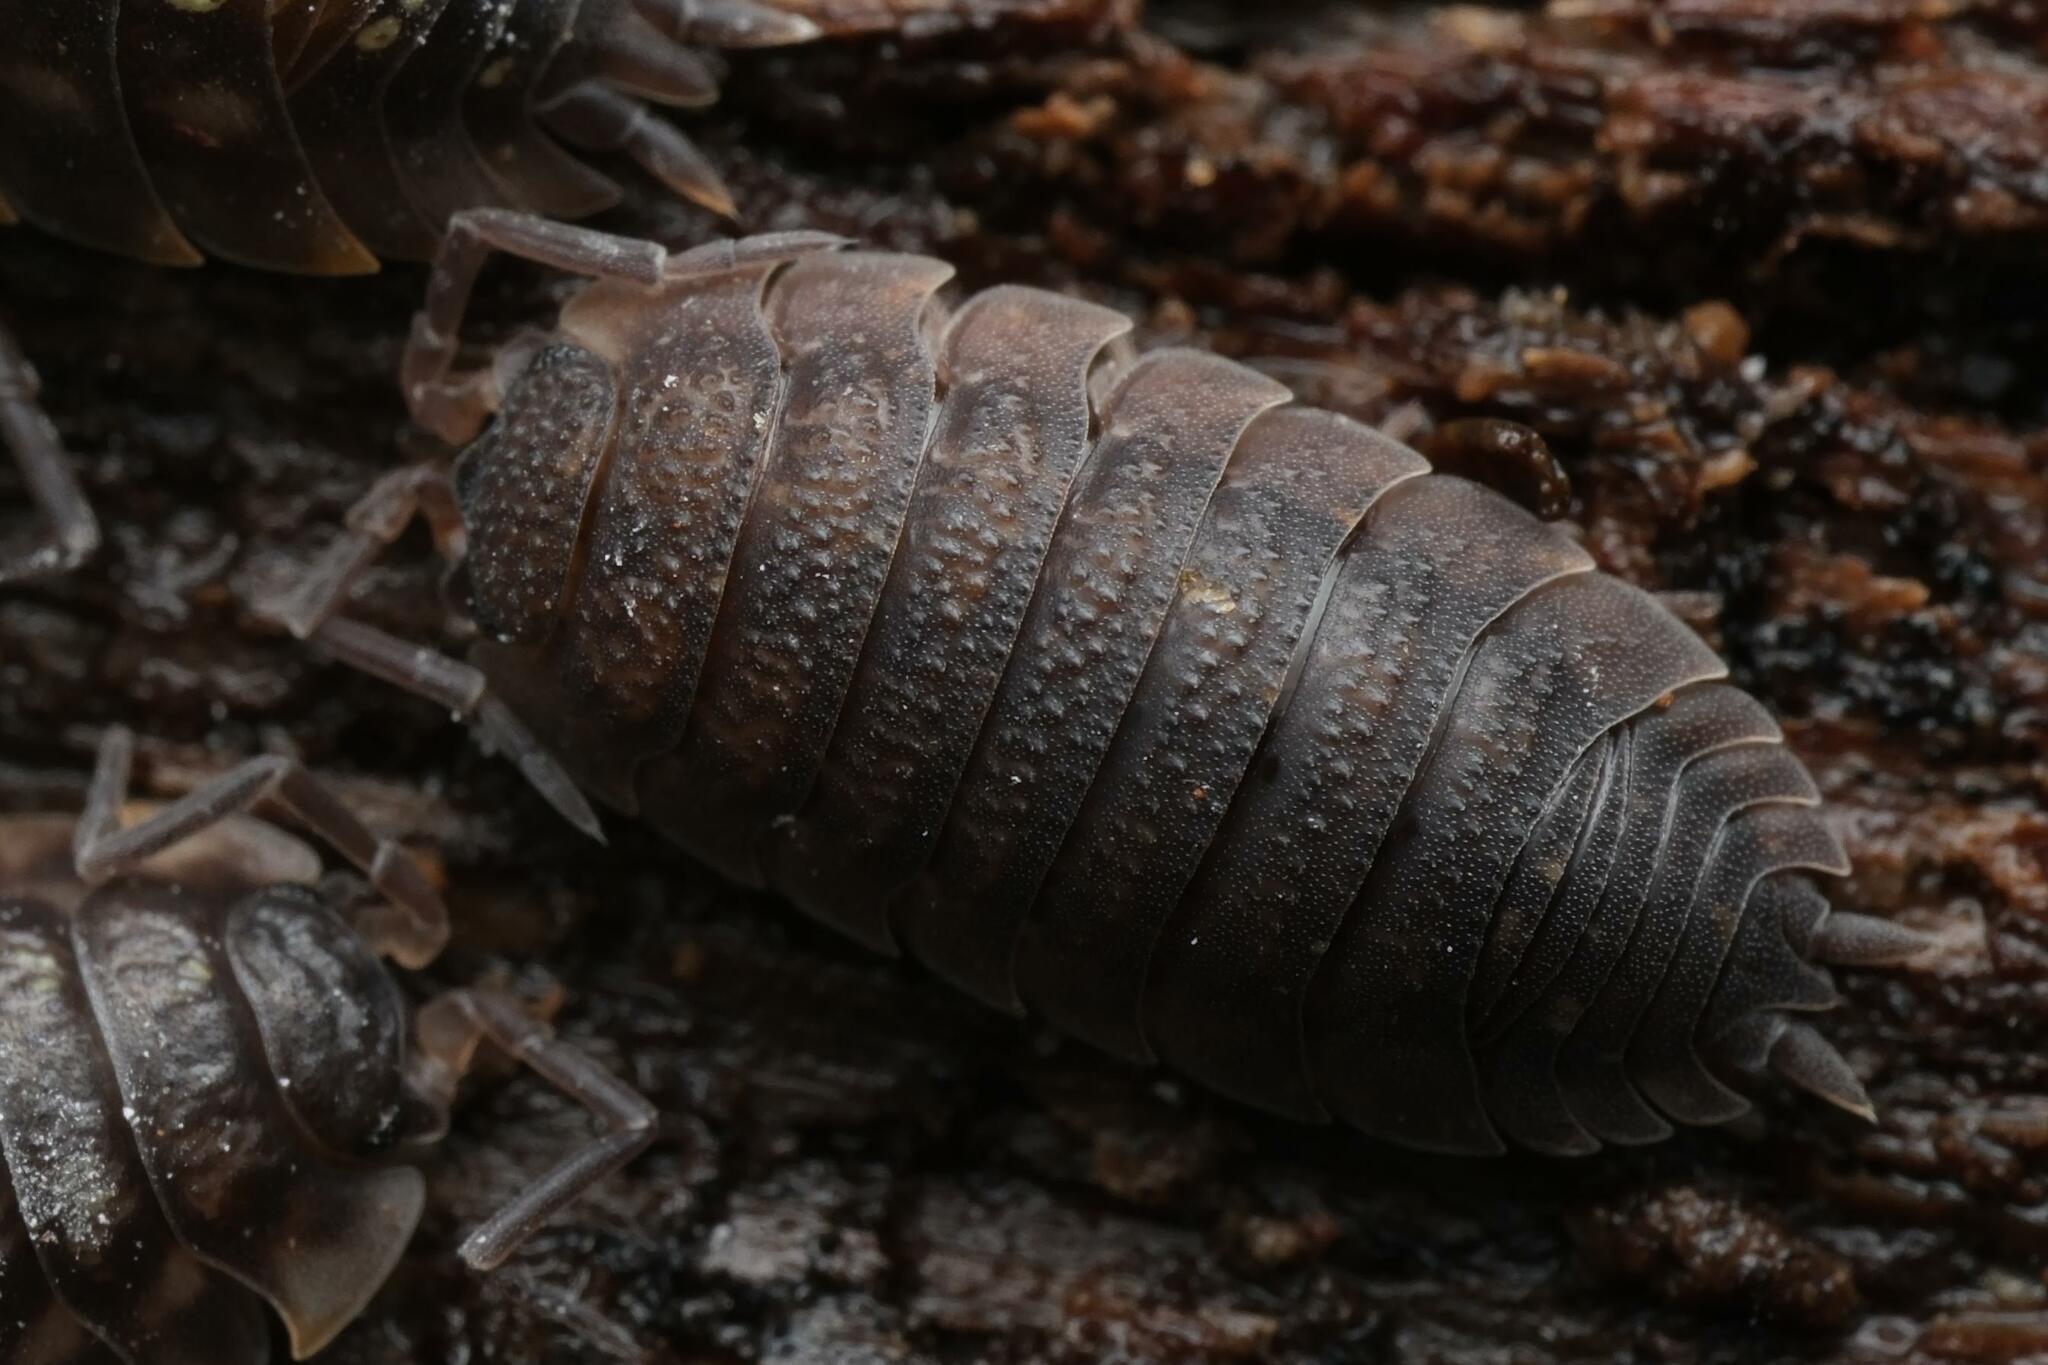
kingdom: Animalia
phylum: Arthropoda
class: Malacostraca
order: Isopoda
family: Porcellionidae
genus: Porcellio
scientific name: Porcellio scaber
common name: Common rough woodlouse
